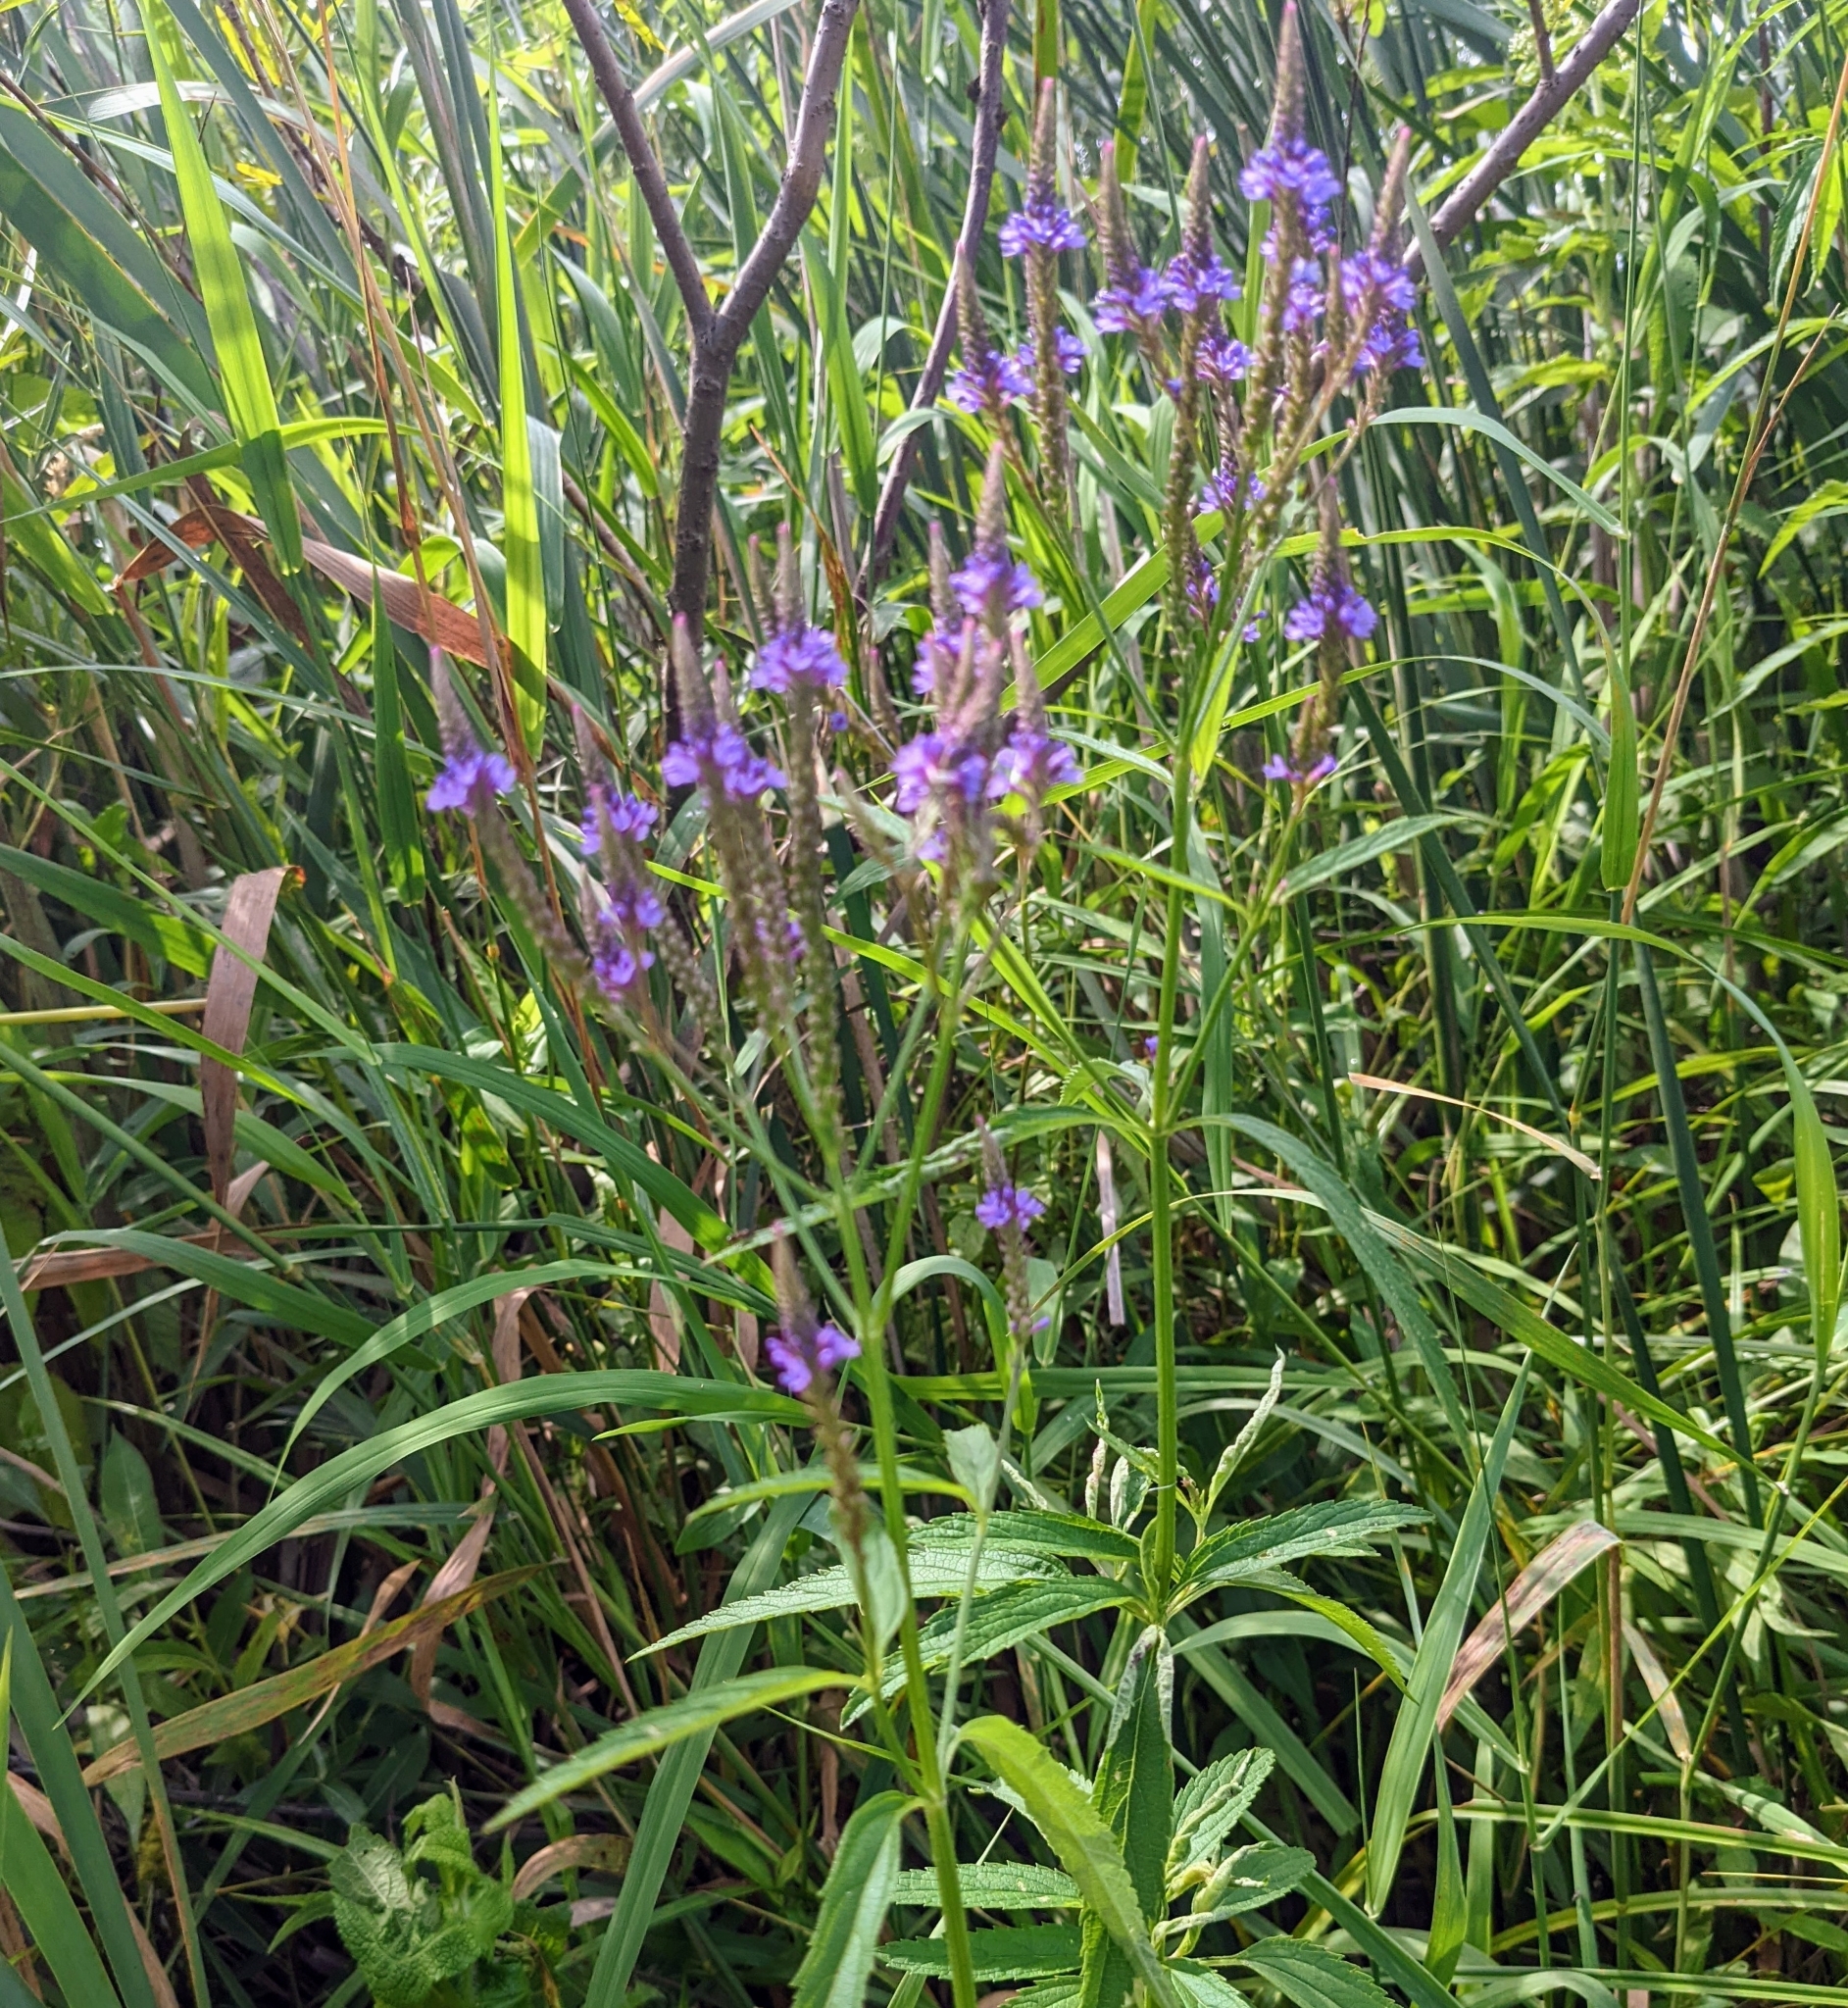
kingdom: Plantae
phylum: Tracheophyta
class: Magnoliopsida
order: Lamiales
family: Verbenaceae
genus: Verbena
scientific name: Verbena hastata
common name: American blue vervain
